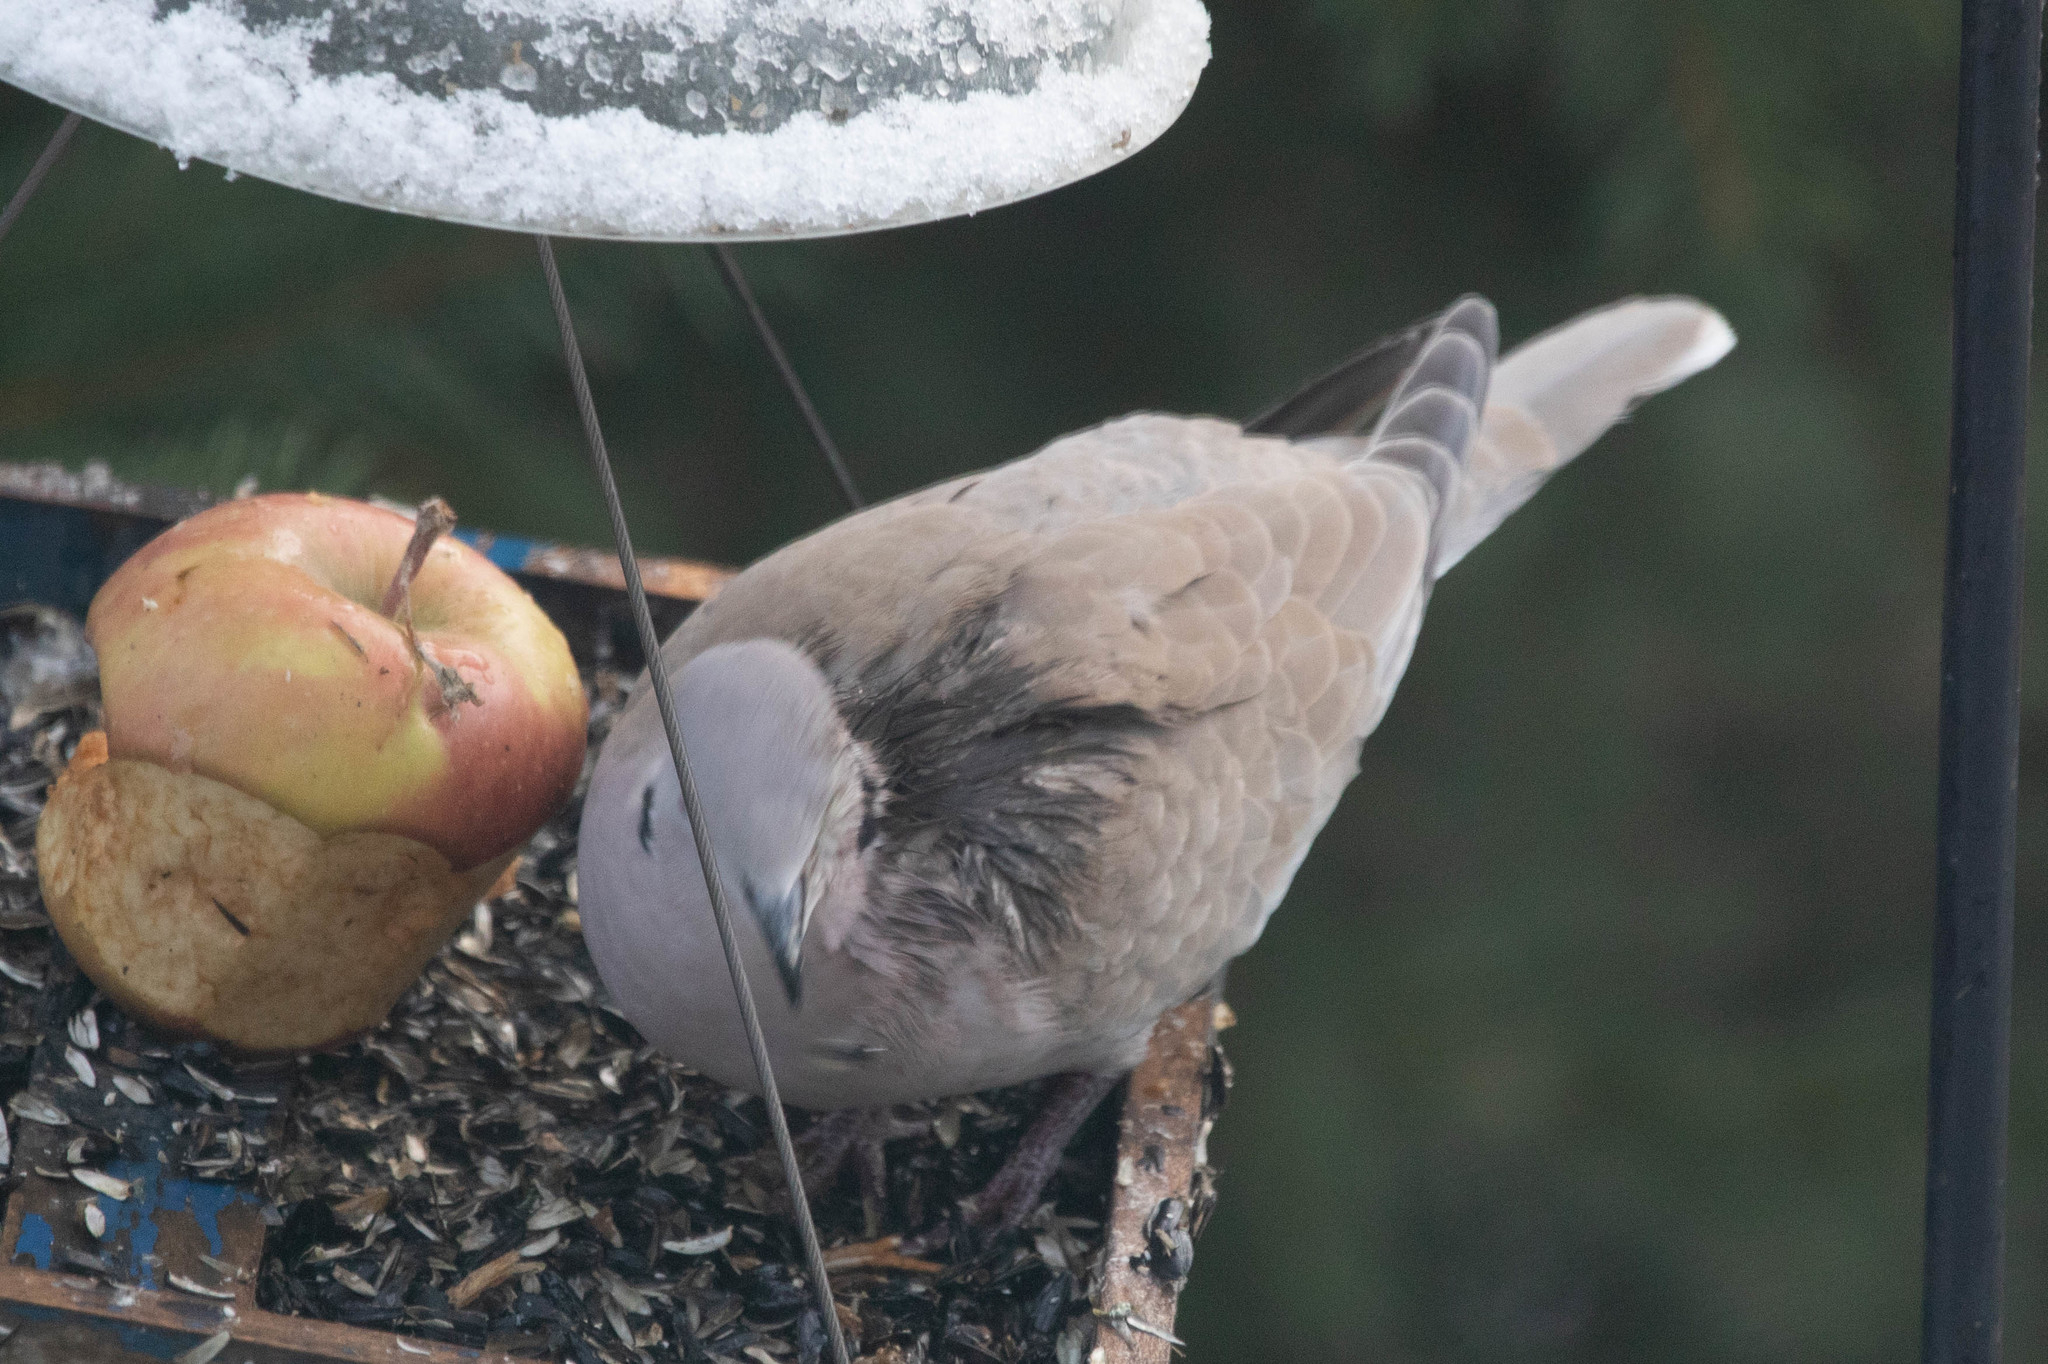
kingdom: Animalia
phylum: Chordata
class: Aves
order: Columbiformes
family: Columbidae
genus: Streptopelia
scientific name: Streptopelia decaocto
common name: Eurasian collared dove
